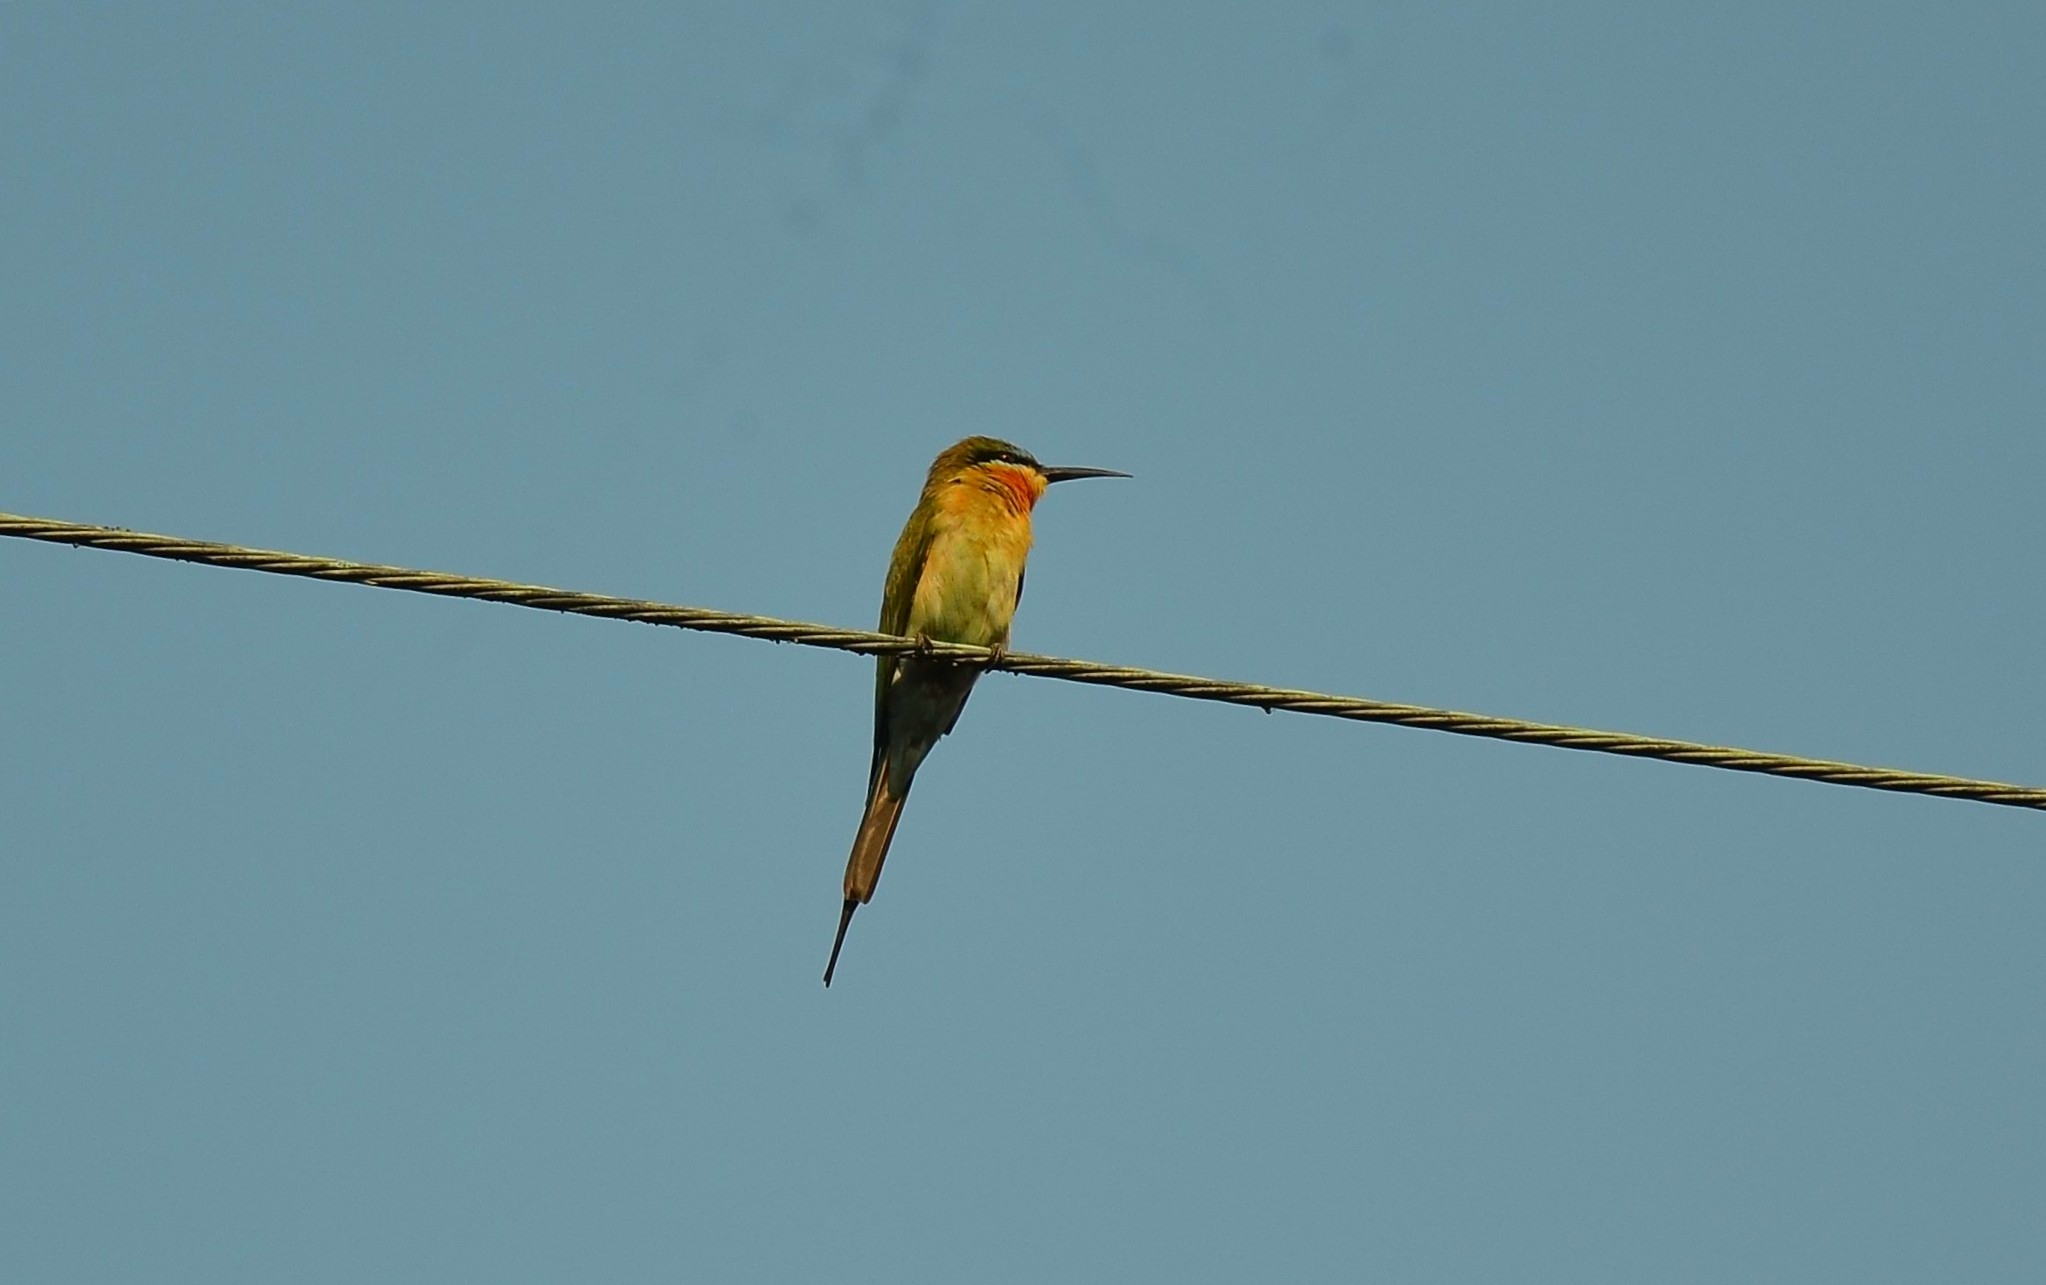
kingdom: Animalia
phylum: Chordata
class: Aves
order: Coraciiformes
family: Meropidae
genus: Merops
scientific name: Merops philippinus
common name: Blue-tailed bee-eater
